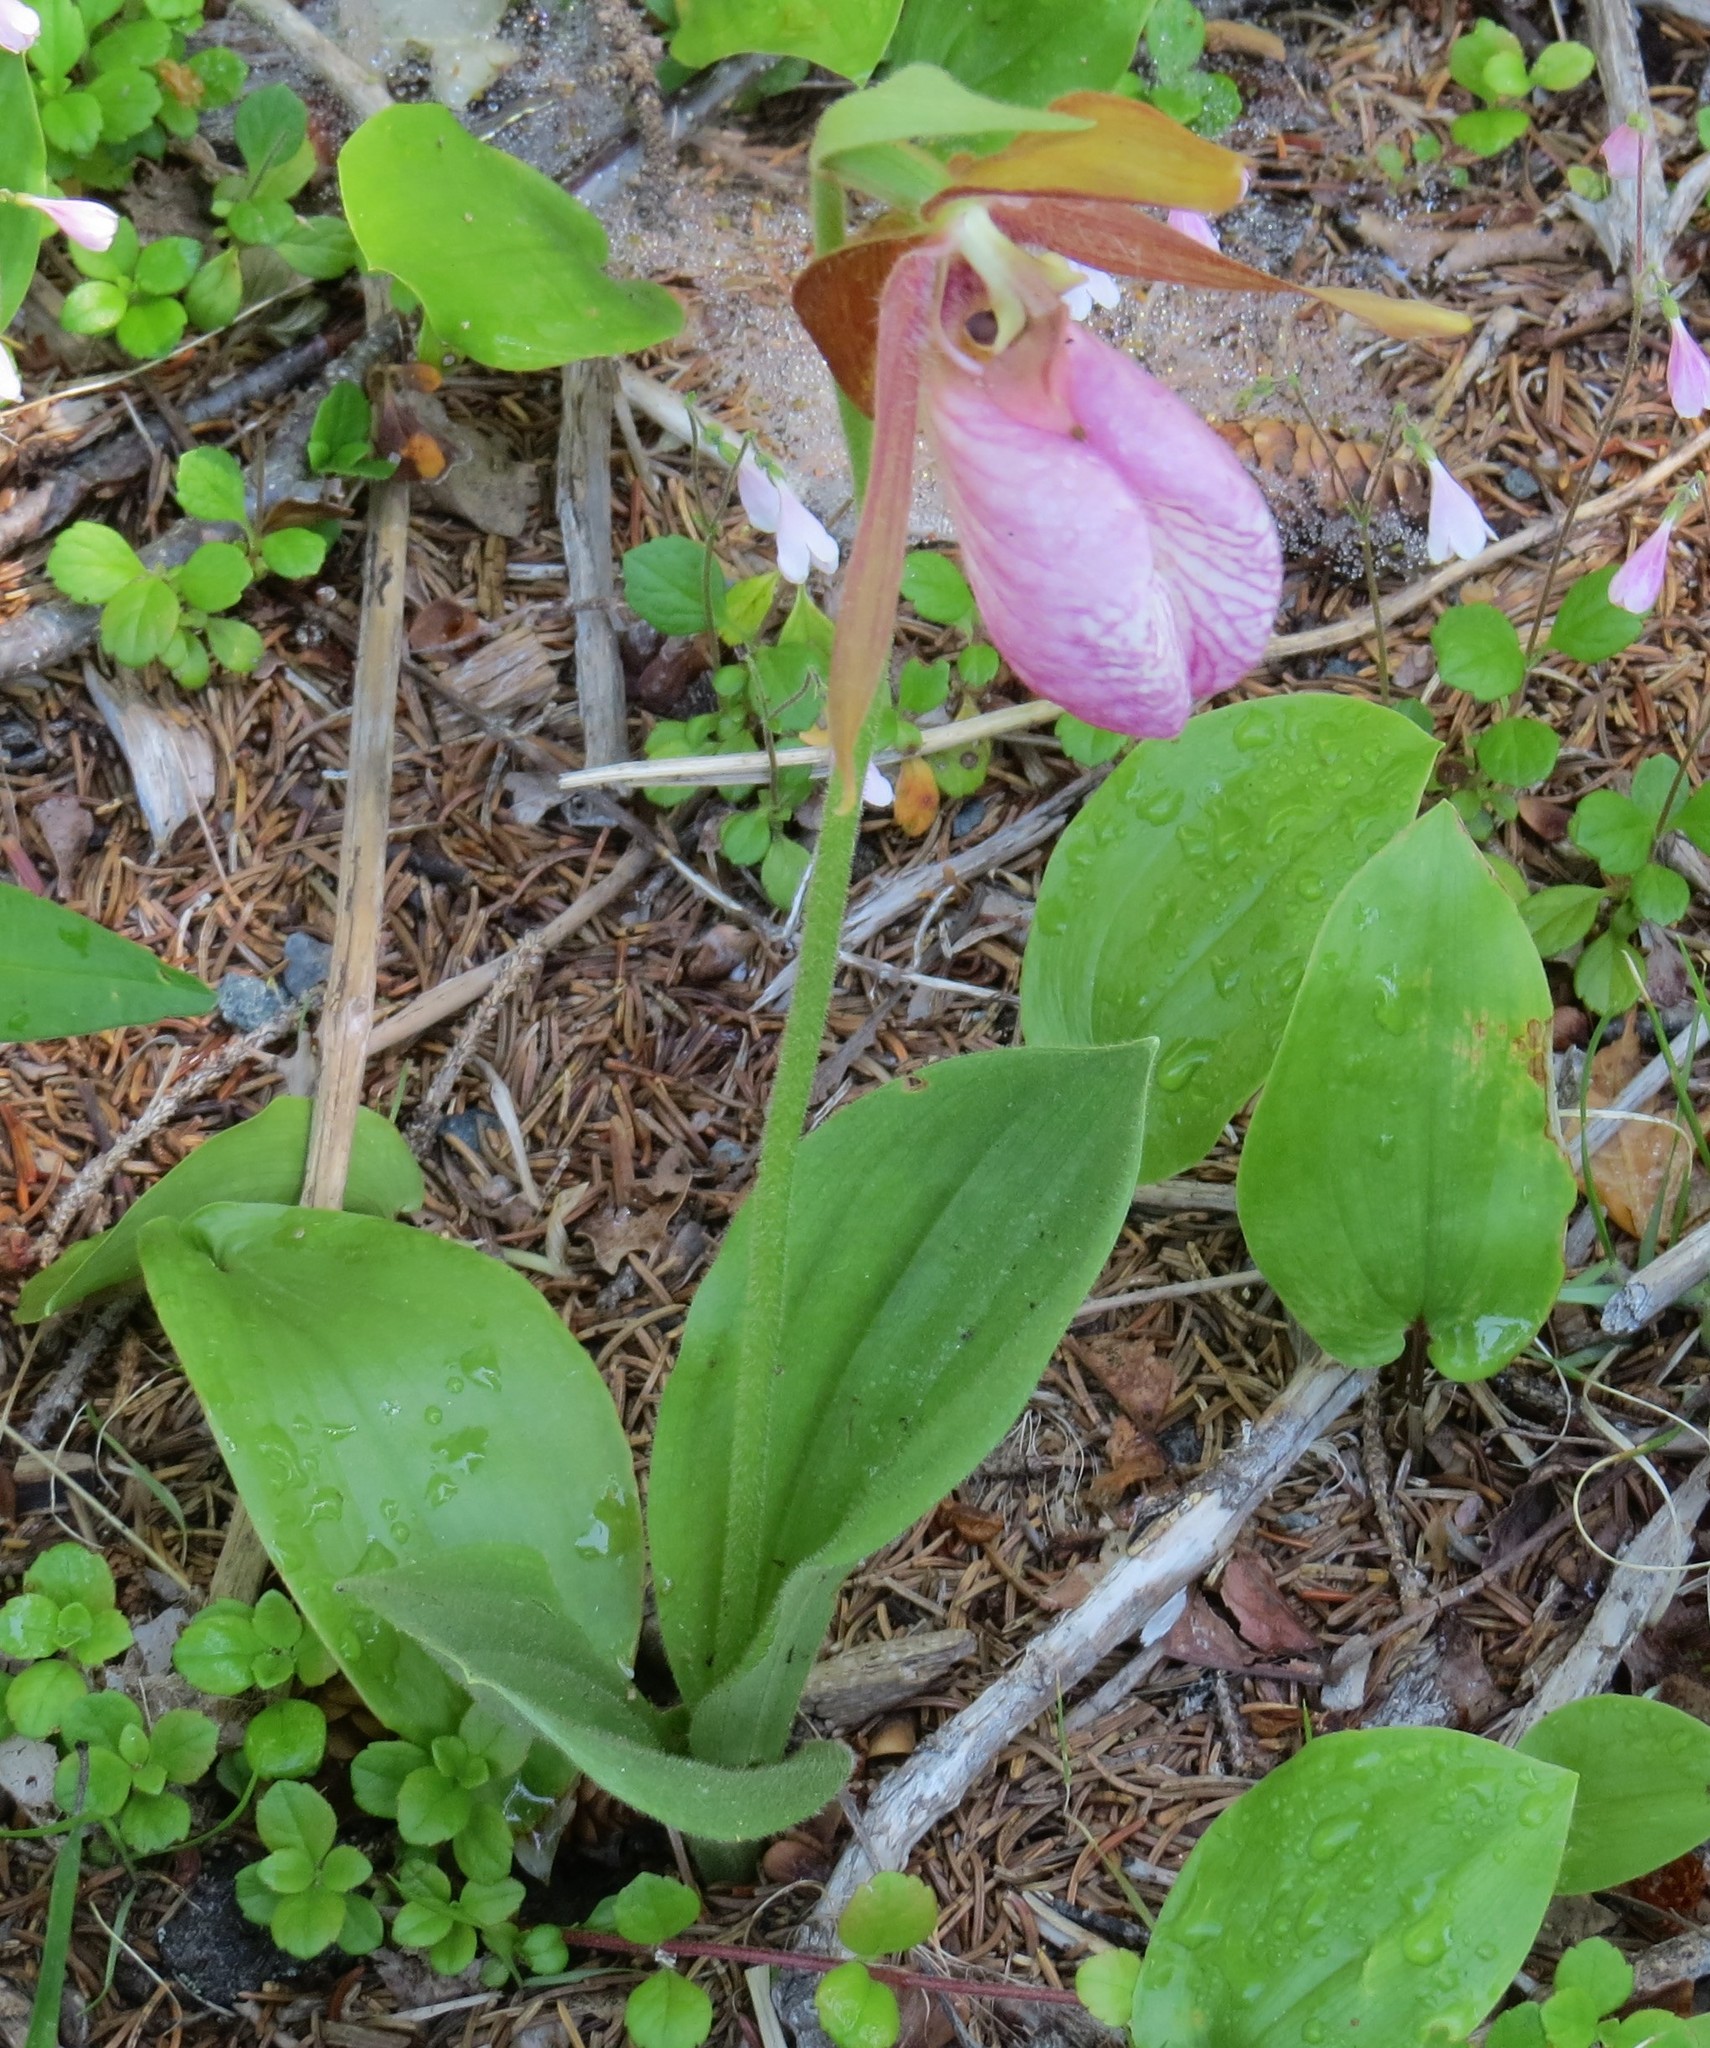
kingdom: Plantae
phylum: Tracheophyta
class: Liliopsida
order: Asparagales
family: Orchidaceae
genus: Cypripedium
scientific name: Cypripedium acaule
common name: Pink lady's-slipper
